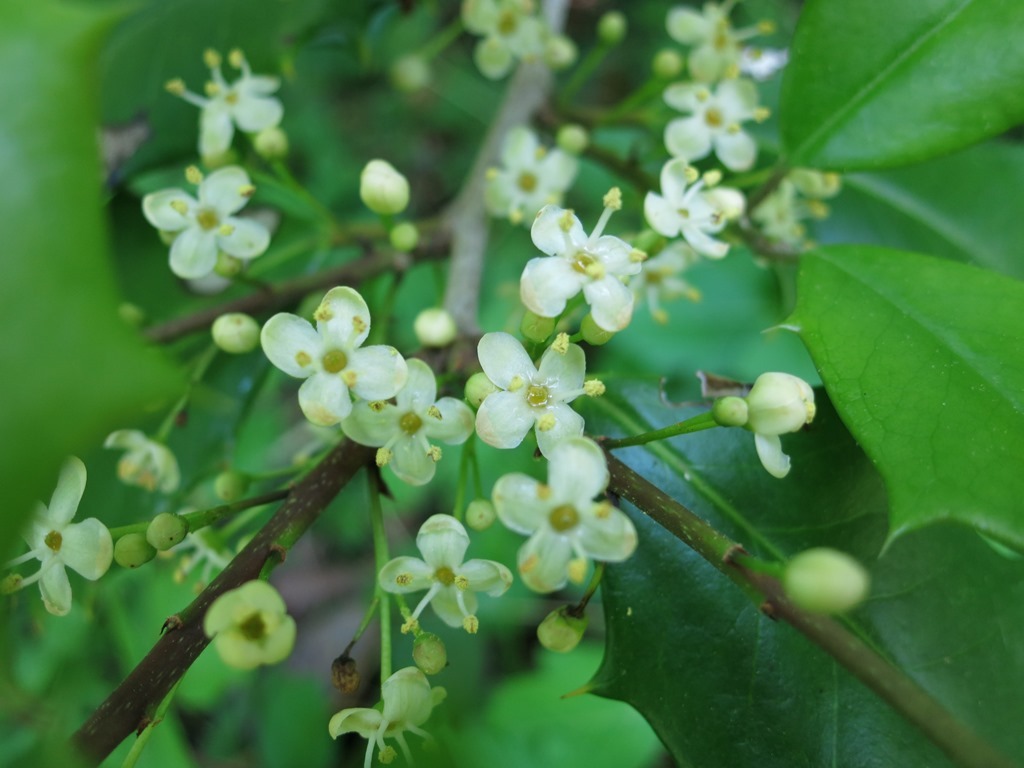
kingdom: Plantae
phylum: Tracheophyta
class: Magnoliopsida
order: Aquifoliales
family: Aquifoliaceae
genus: Ilex
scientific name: Ilex opaca
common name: American holly
